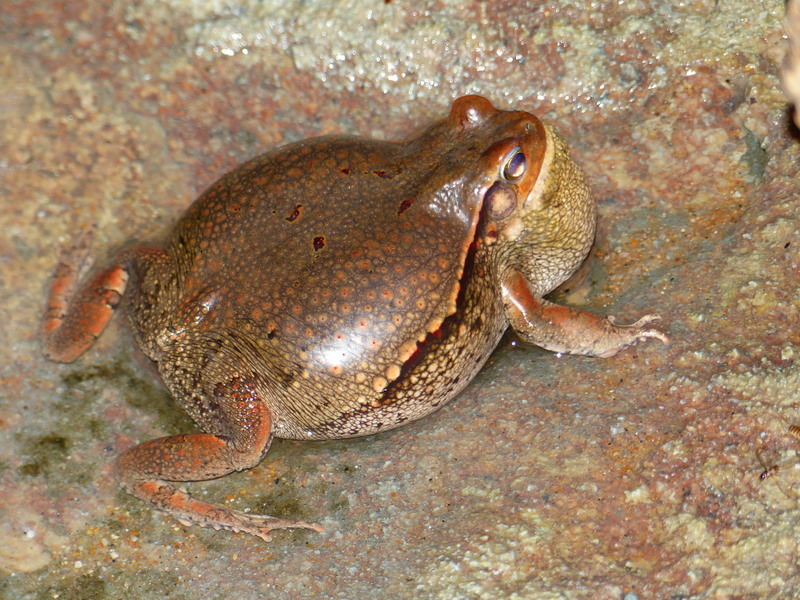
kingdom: Animalia
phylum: Chordata
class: Amphibia
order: Anura
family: Bufonidae
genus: Schismaderma
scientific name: Schismaderma carens
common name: African split-skin toad
